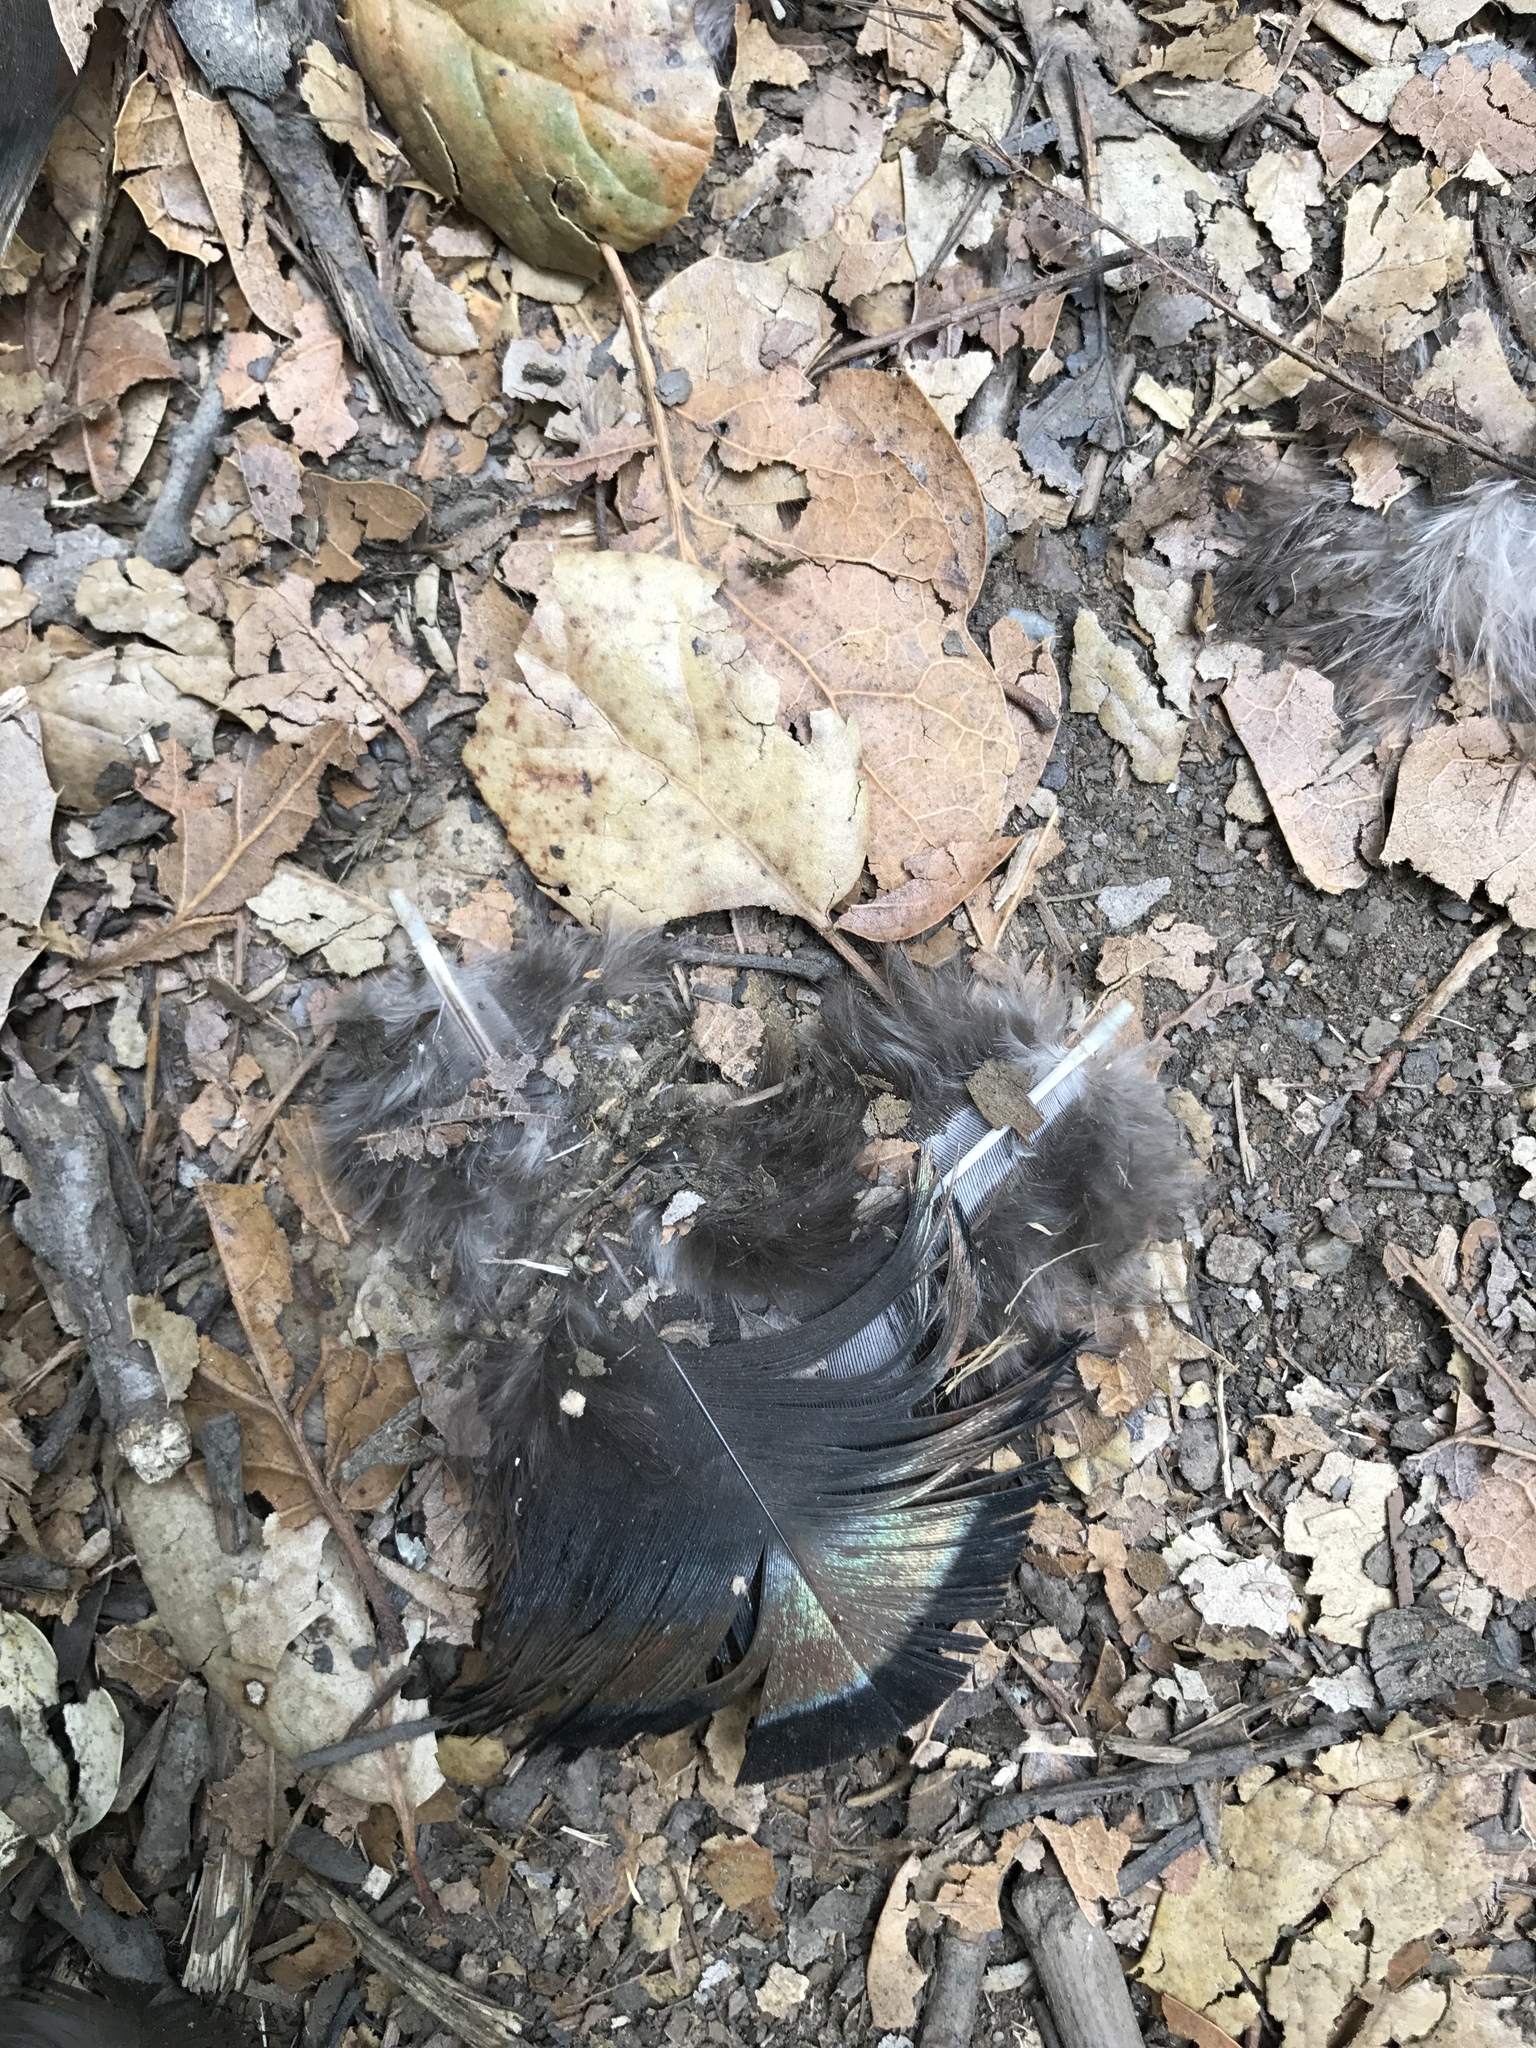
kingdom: Animalia
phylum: Chordata
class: Aves
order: Galliformes
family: Phasianidae
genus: Meleagris
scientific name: Meleagris gallopavo
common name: Wild turkey
